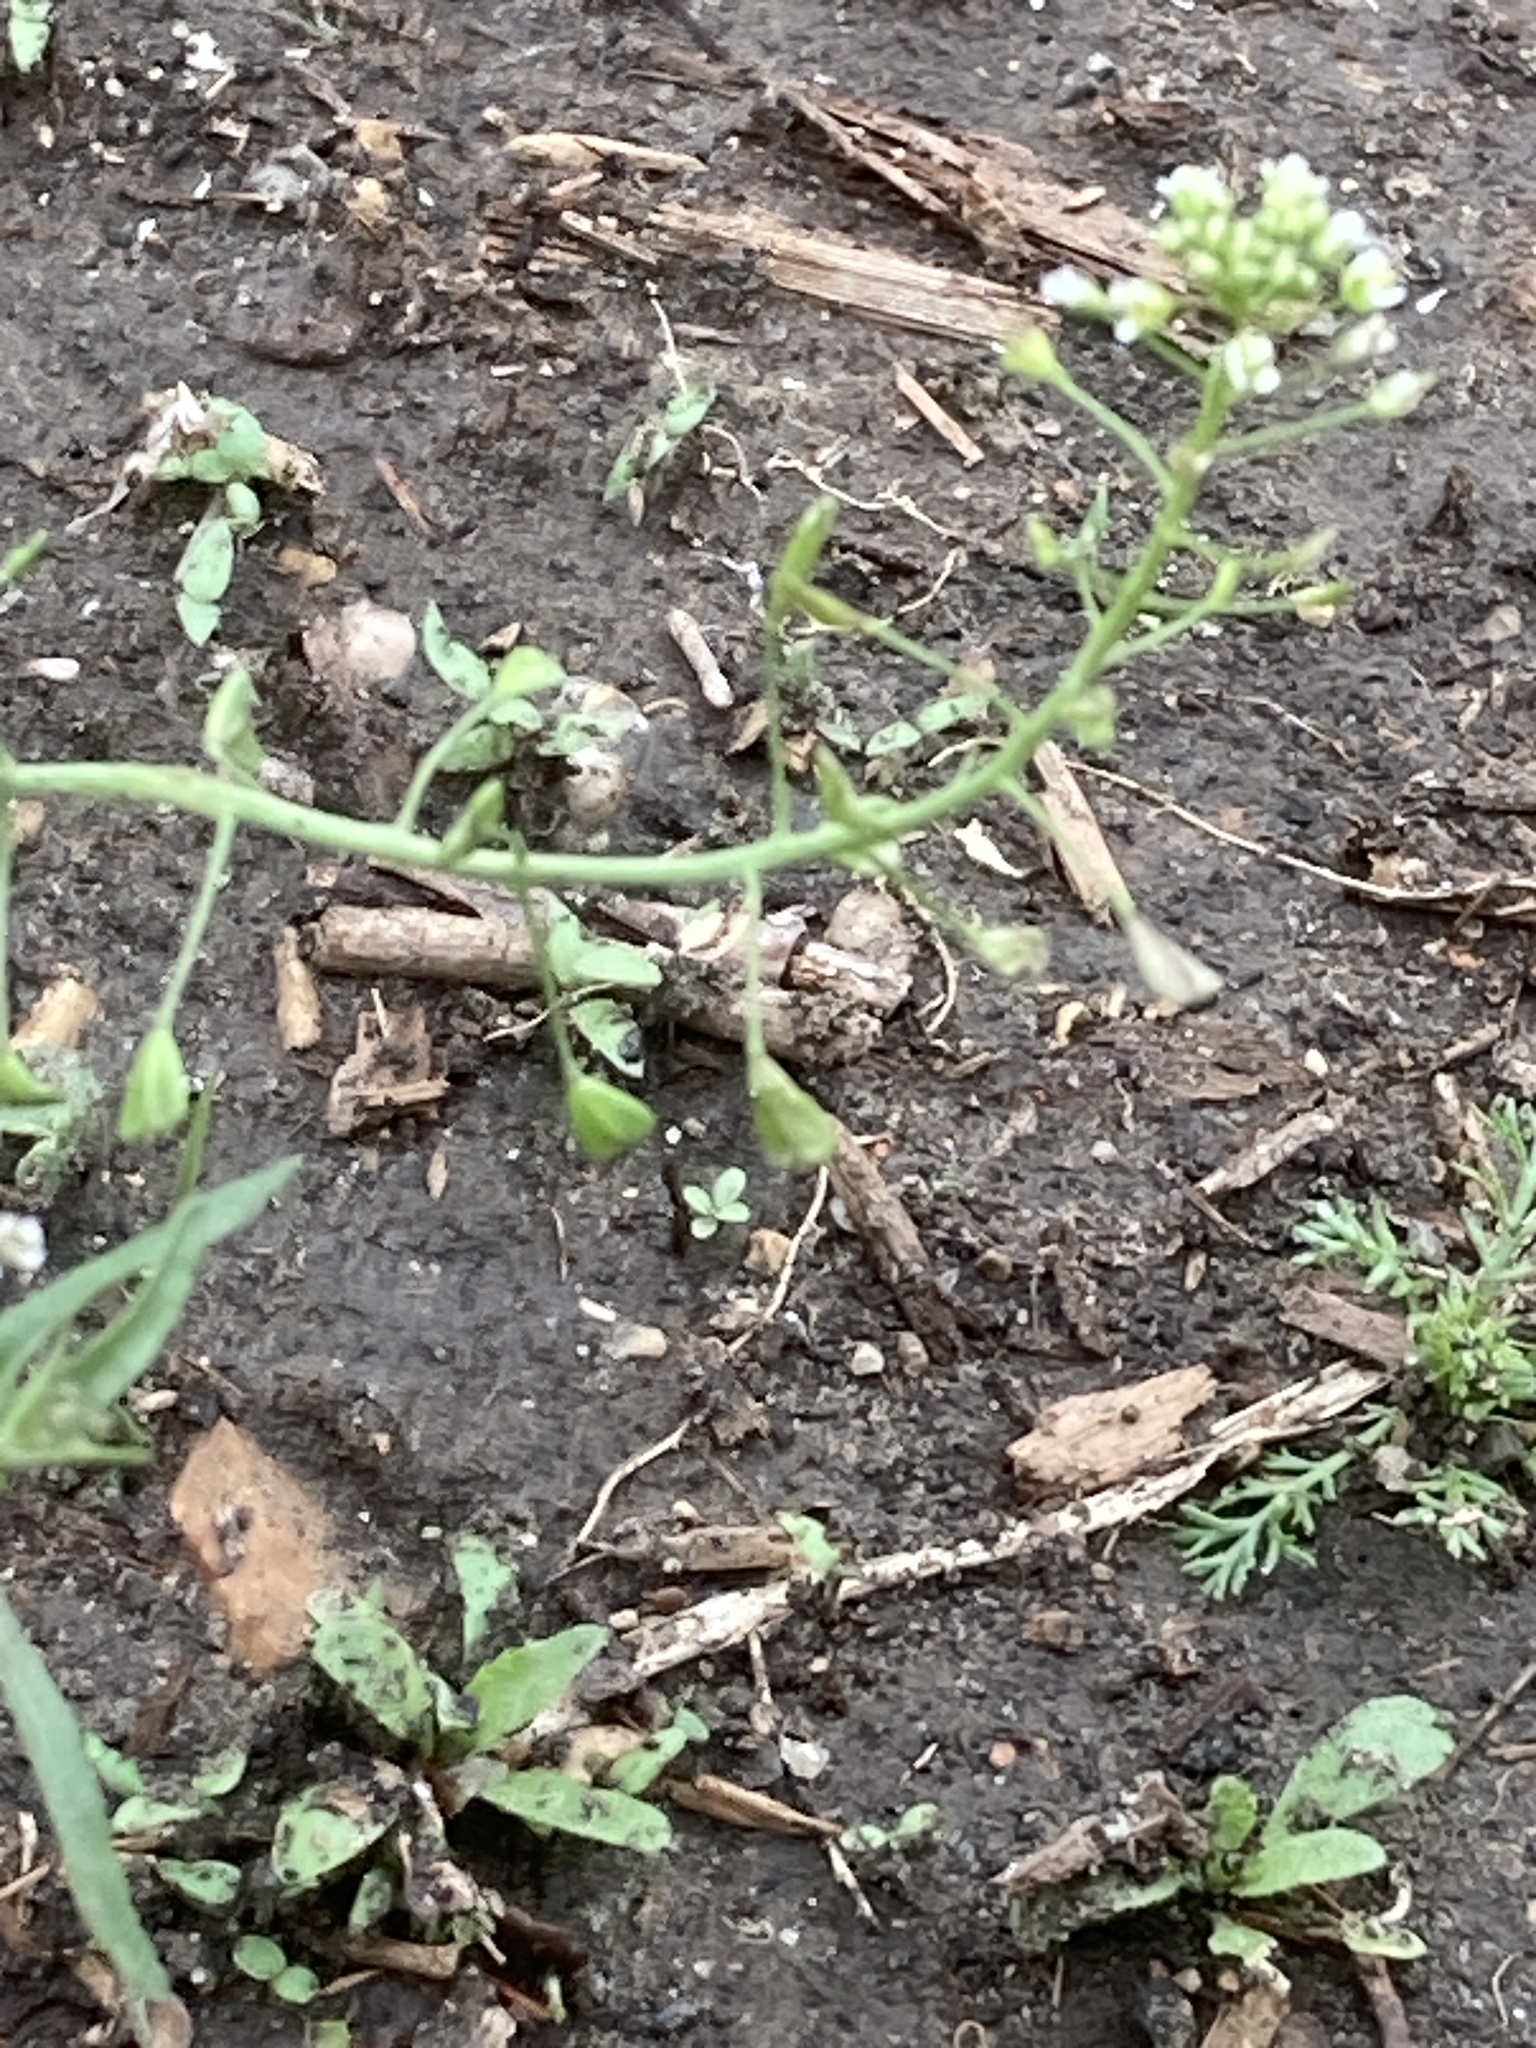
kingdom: Plantae
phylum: Tracheophyta
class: Magnoliopsida
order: Brassicales
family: Brassicaceae
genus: Capsella
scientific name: Capsella bursa-pastoris
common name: Shepherd's purse
